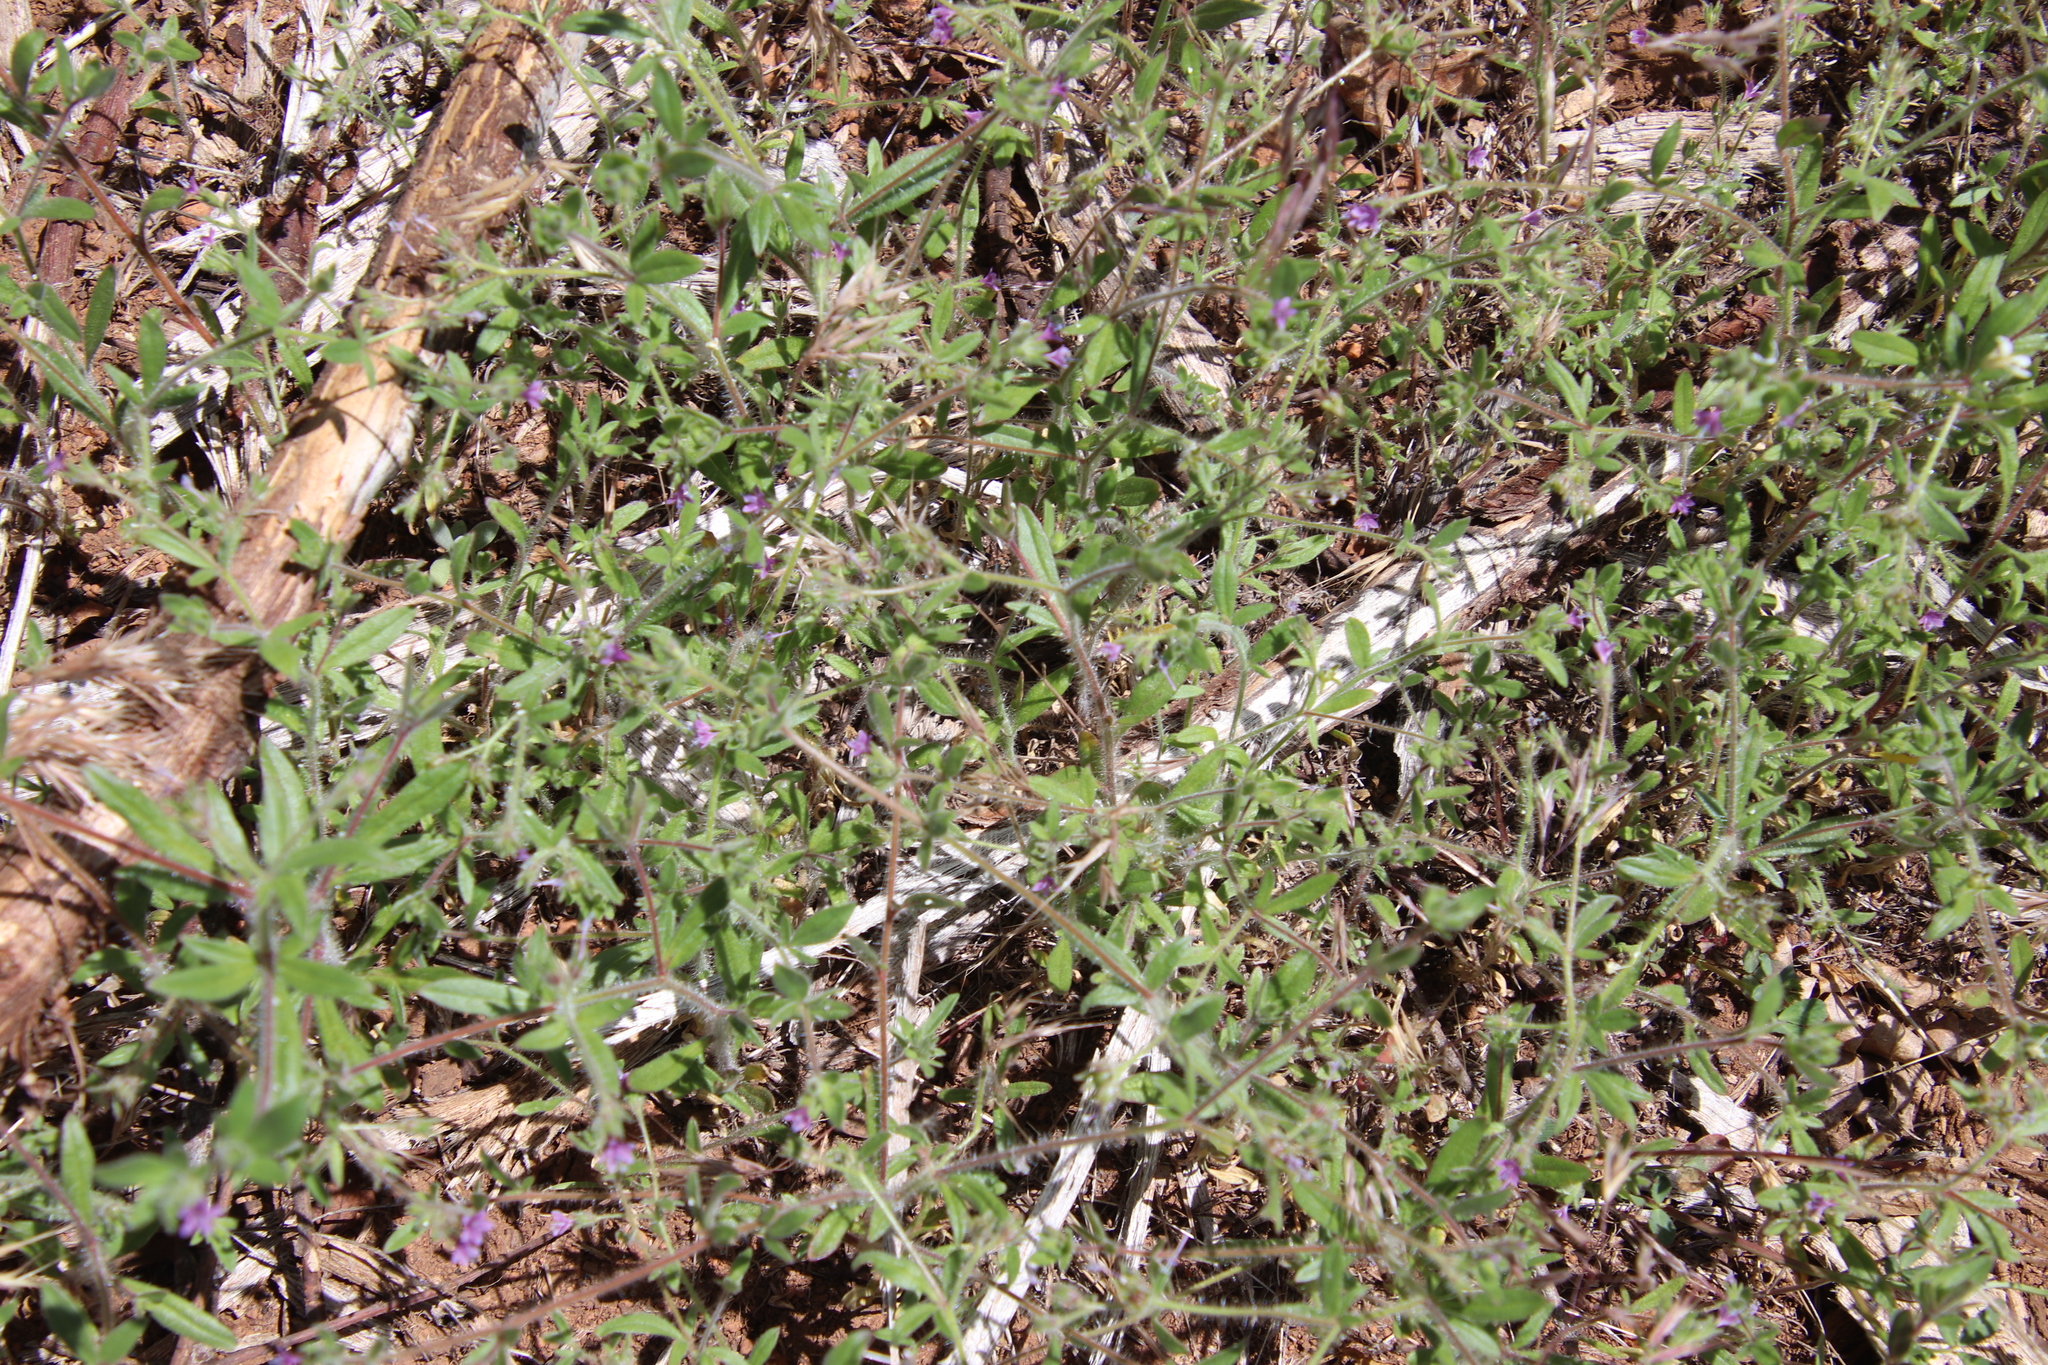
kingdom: Plantae
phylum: Tracheophyta
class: Magnoliopsida
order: Ericales
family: Polemoniaceae
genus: Allophyllum
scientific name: Allophyllum glutinosum
